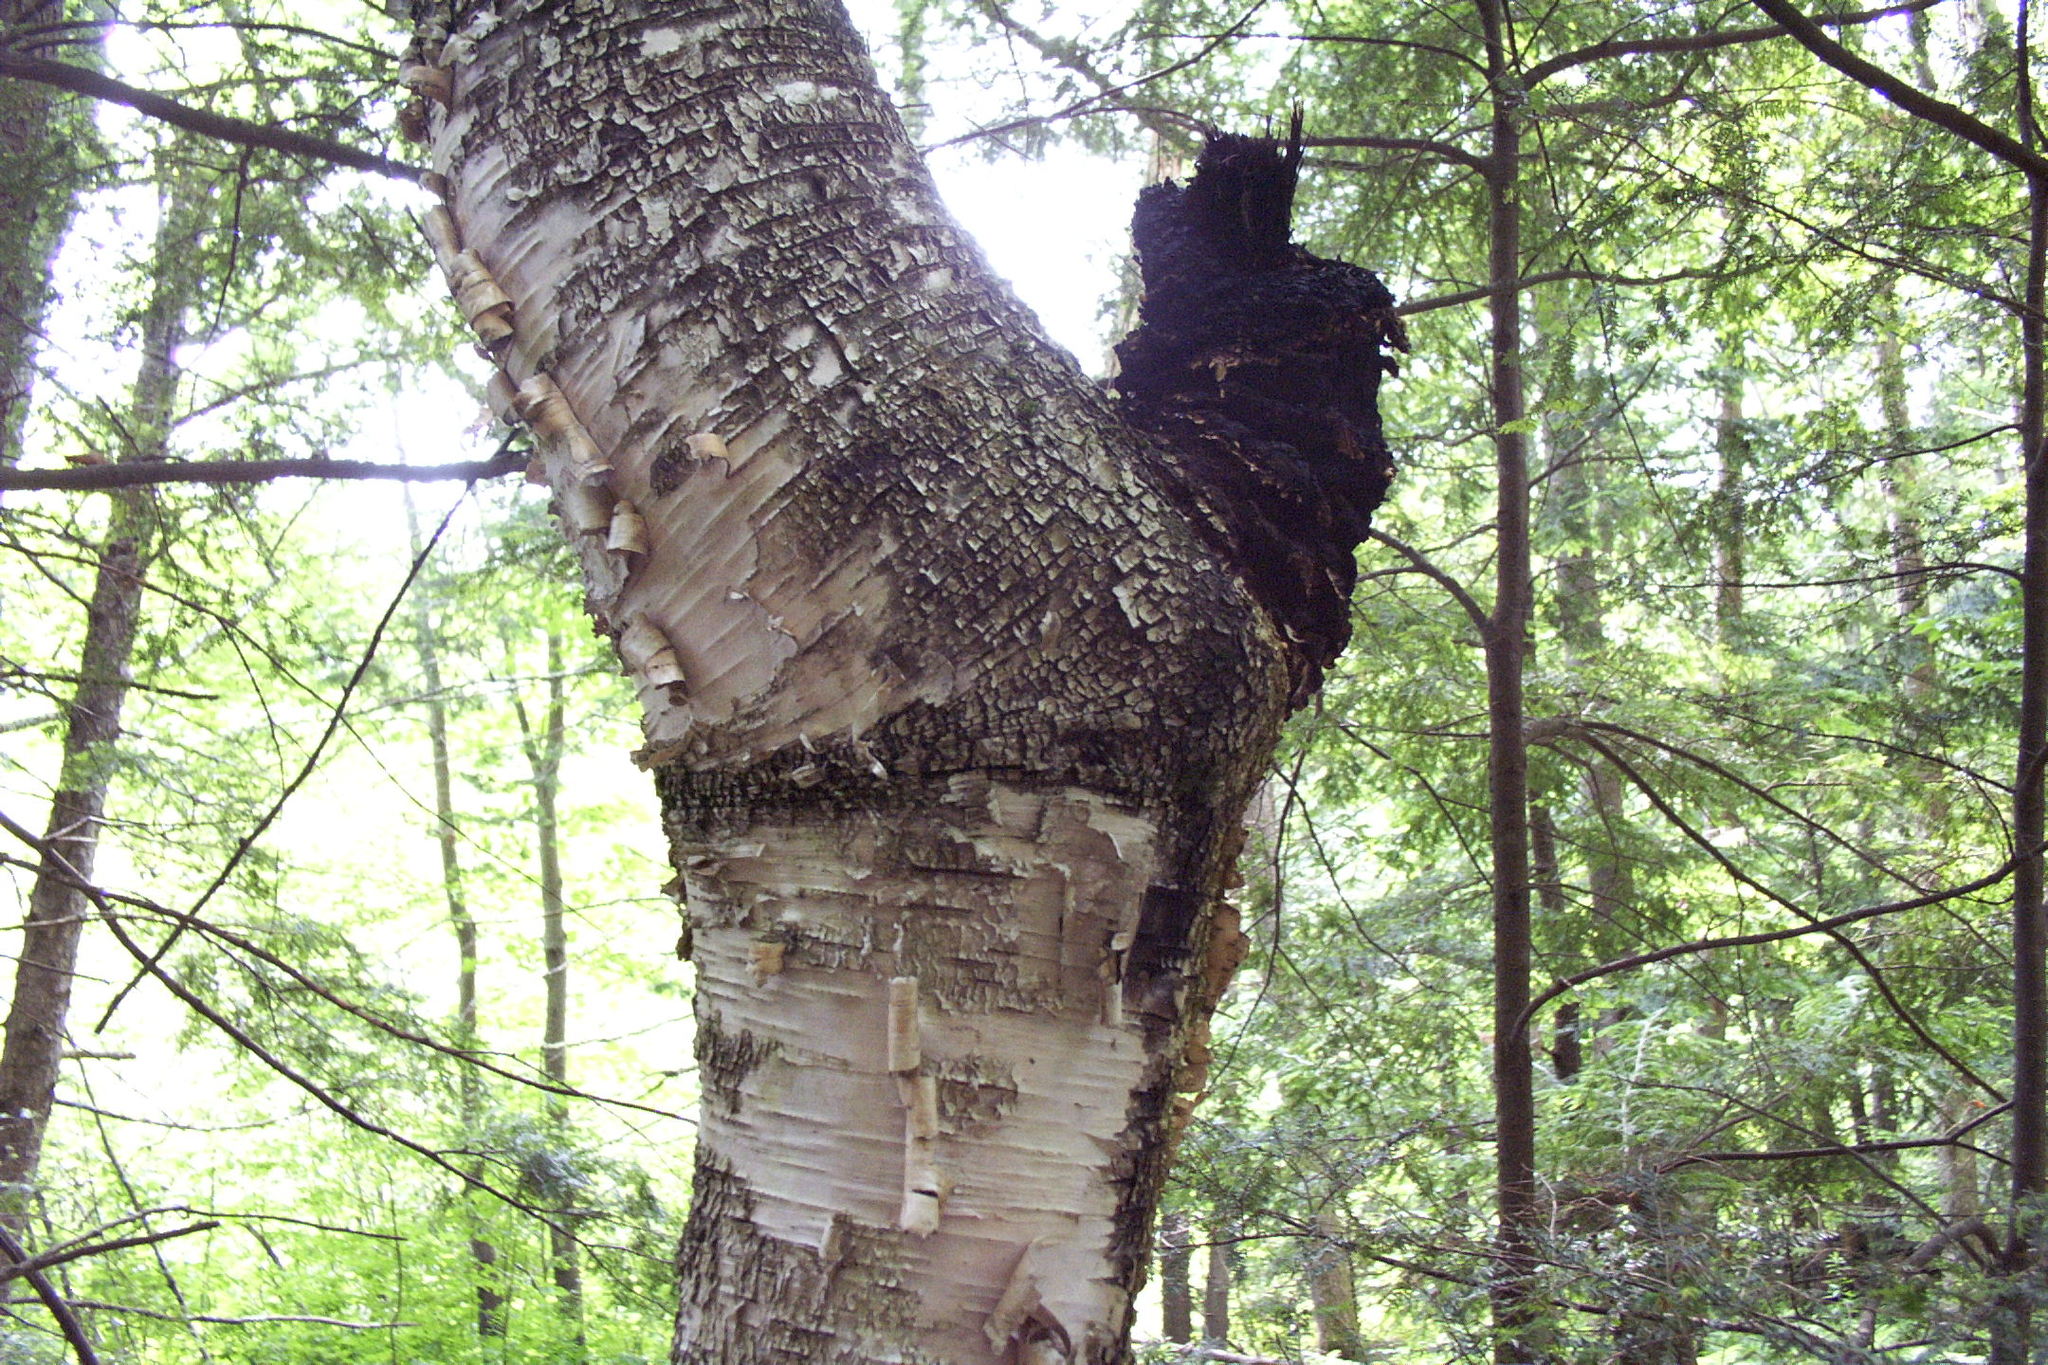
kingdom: Fungi
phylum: Basidiomycota
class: Agaricomycetes
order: Hymenochaetales
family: Hymenochaetaceae
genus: Inonotus
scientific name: Inonotus obliquus
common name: Chaga
